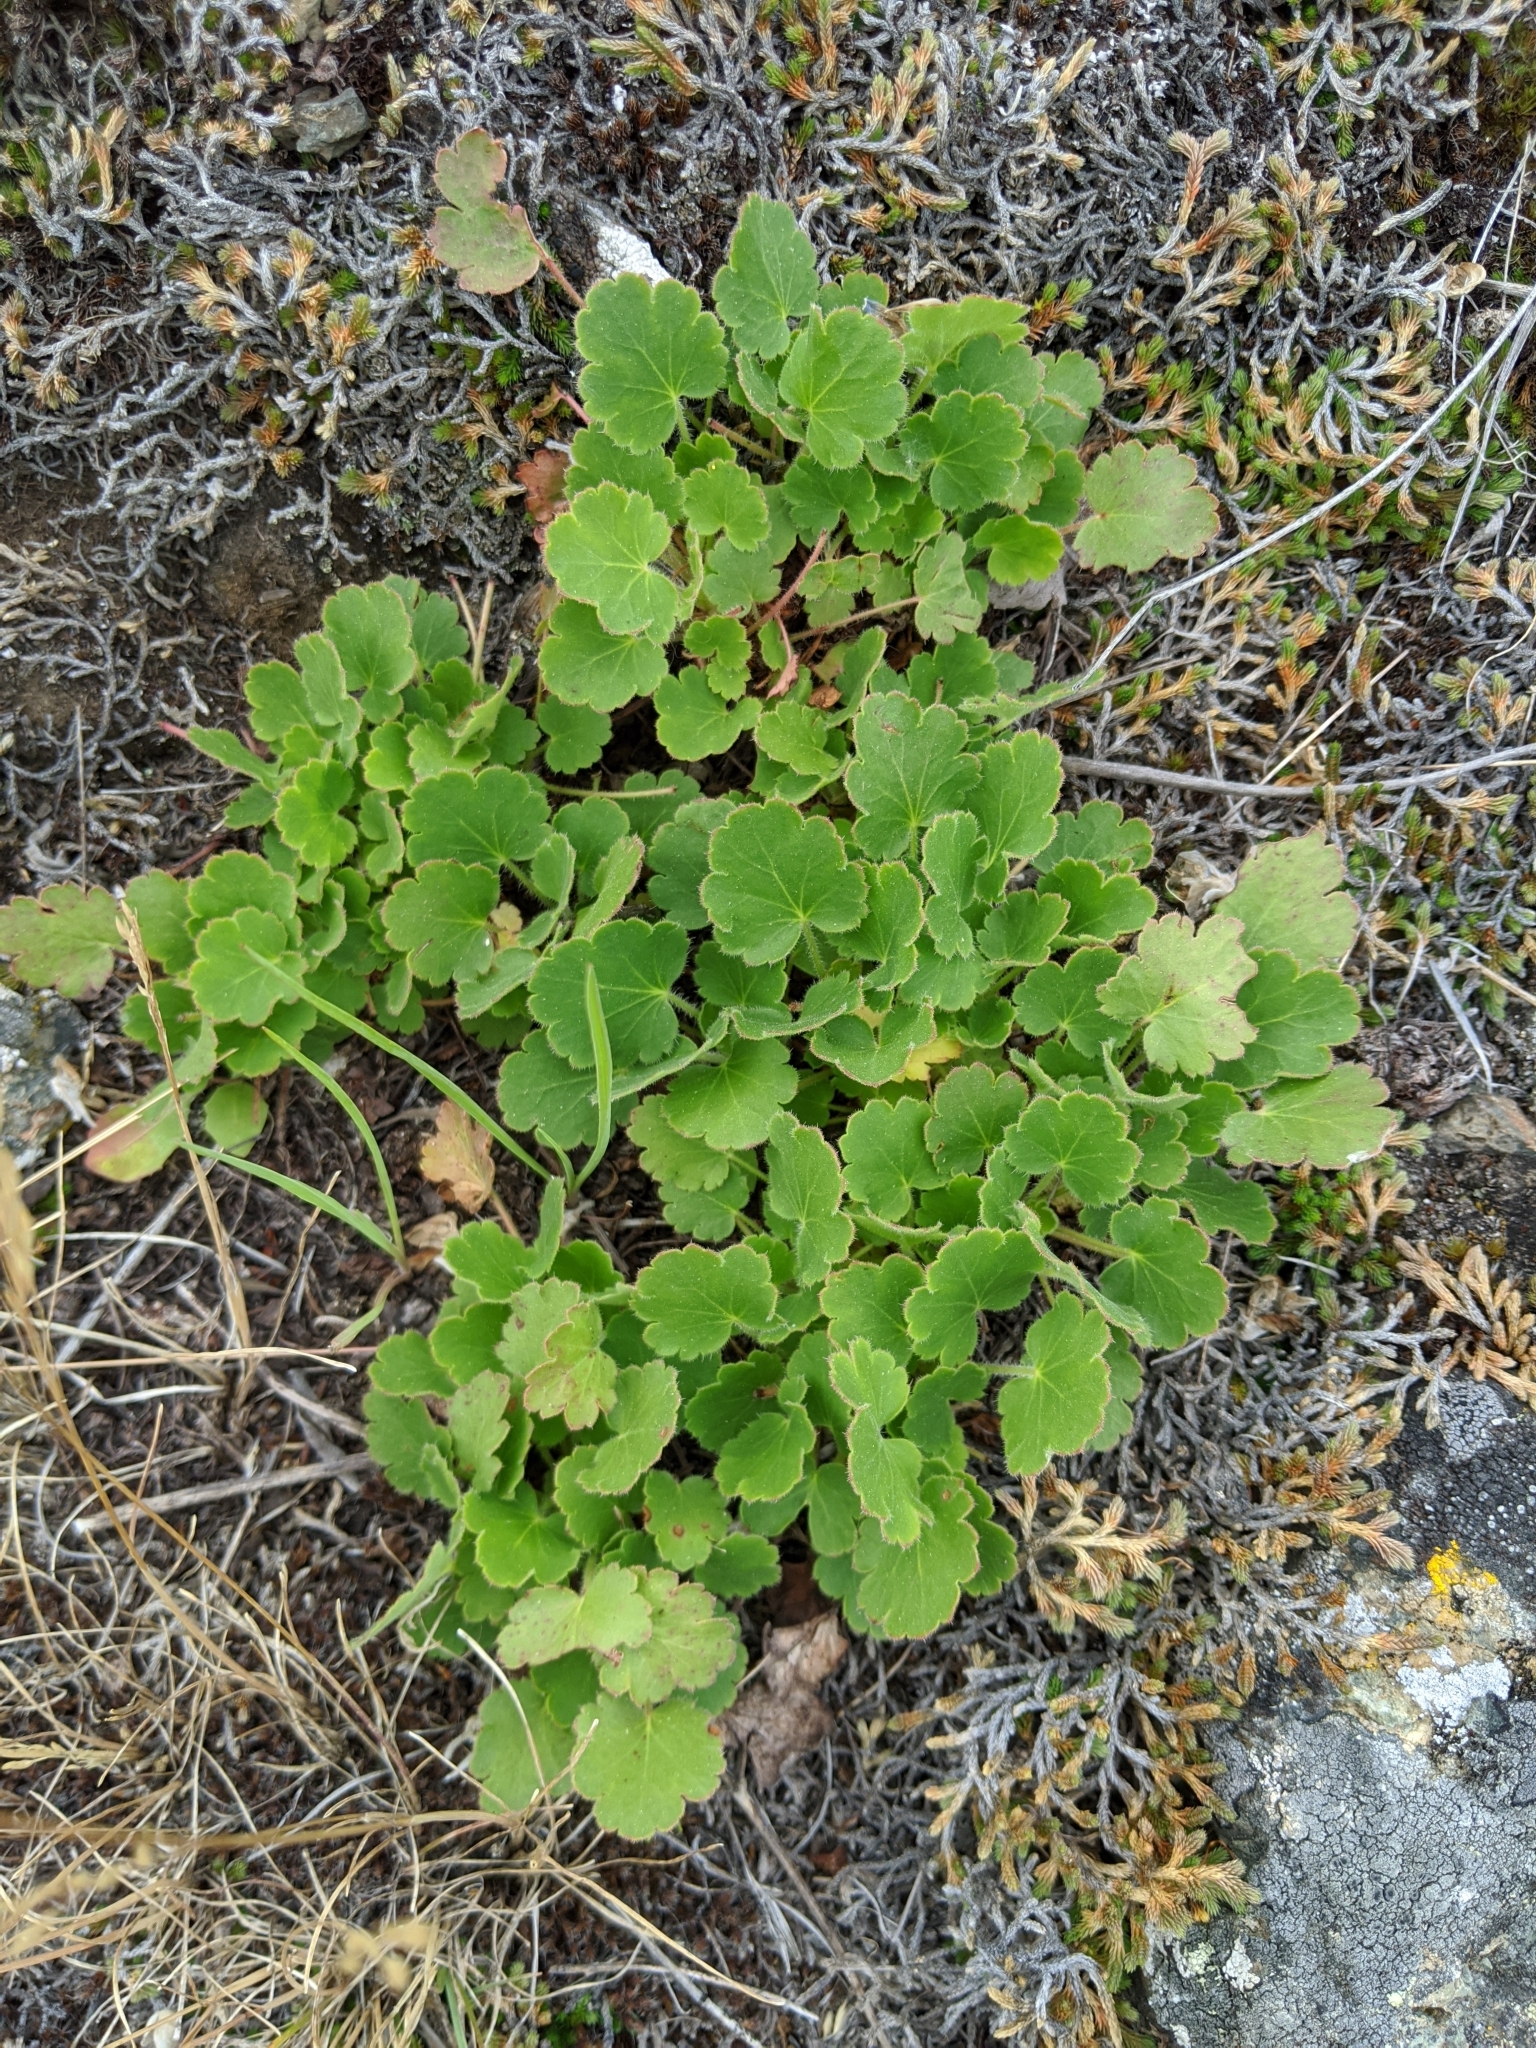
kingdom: Plantae
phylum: Tracheophyta
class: Magnoliopsida
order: Saxifragales
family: Saxifragaceae
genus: Heuchera
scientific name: Heuchera cylindrica
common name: Mat alumroot
